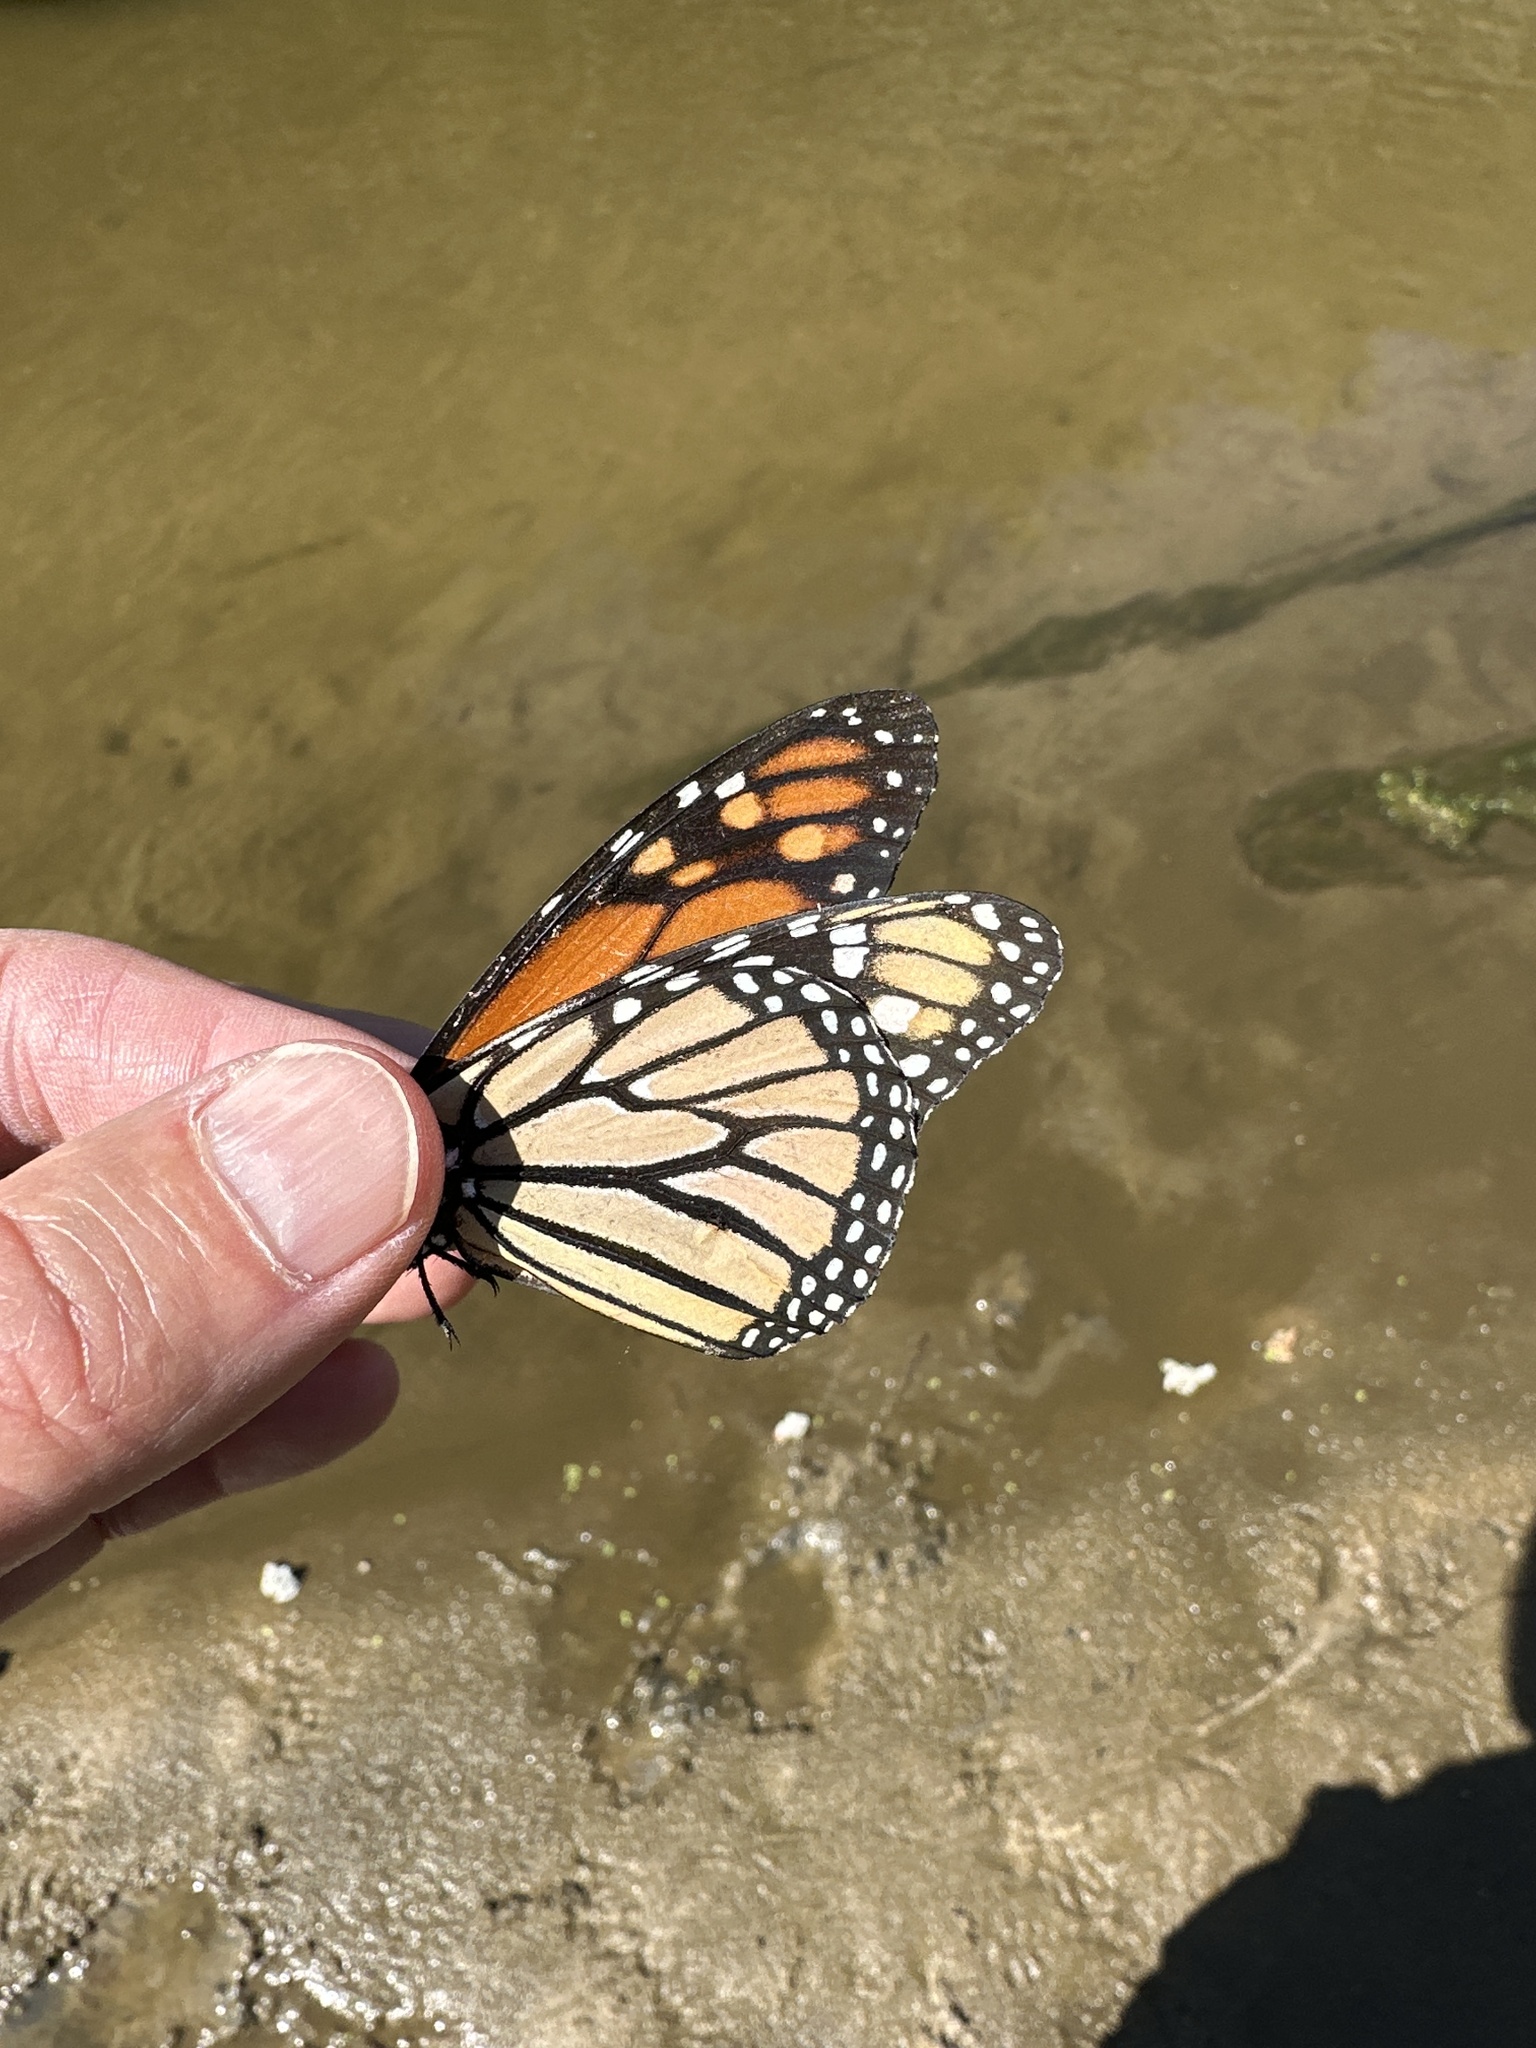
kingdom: Animalia
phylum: Arthropoda
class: Insecta
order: Lepidoptera
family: Nymphalidae
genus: Danaus
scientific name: Danaus plexippus
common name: Monarch
